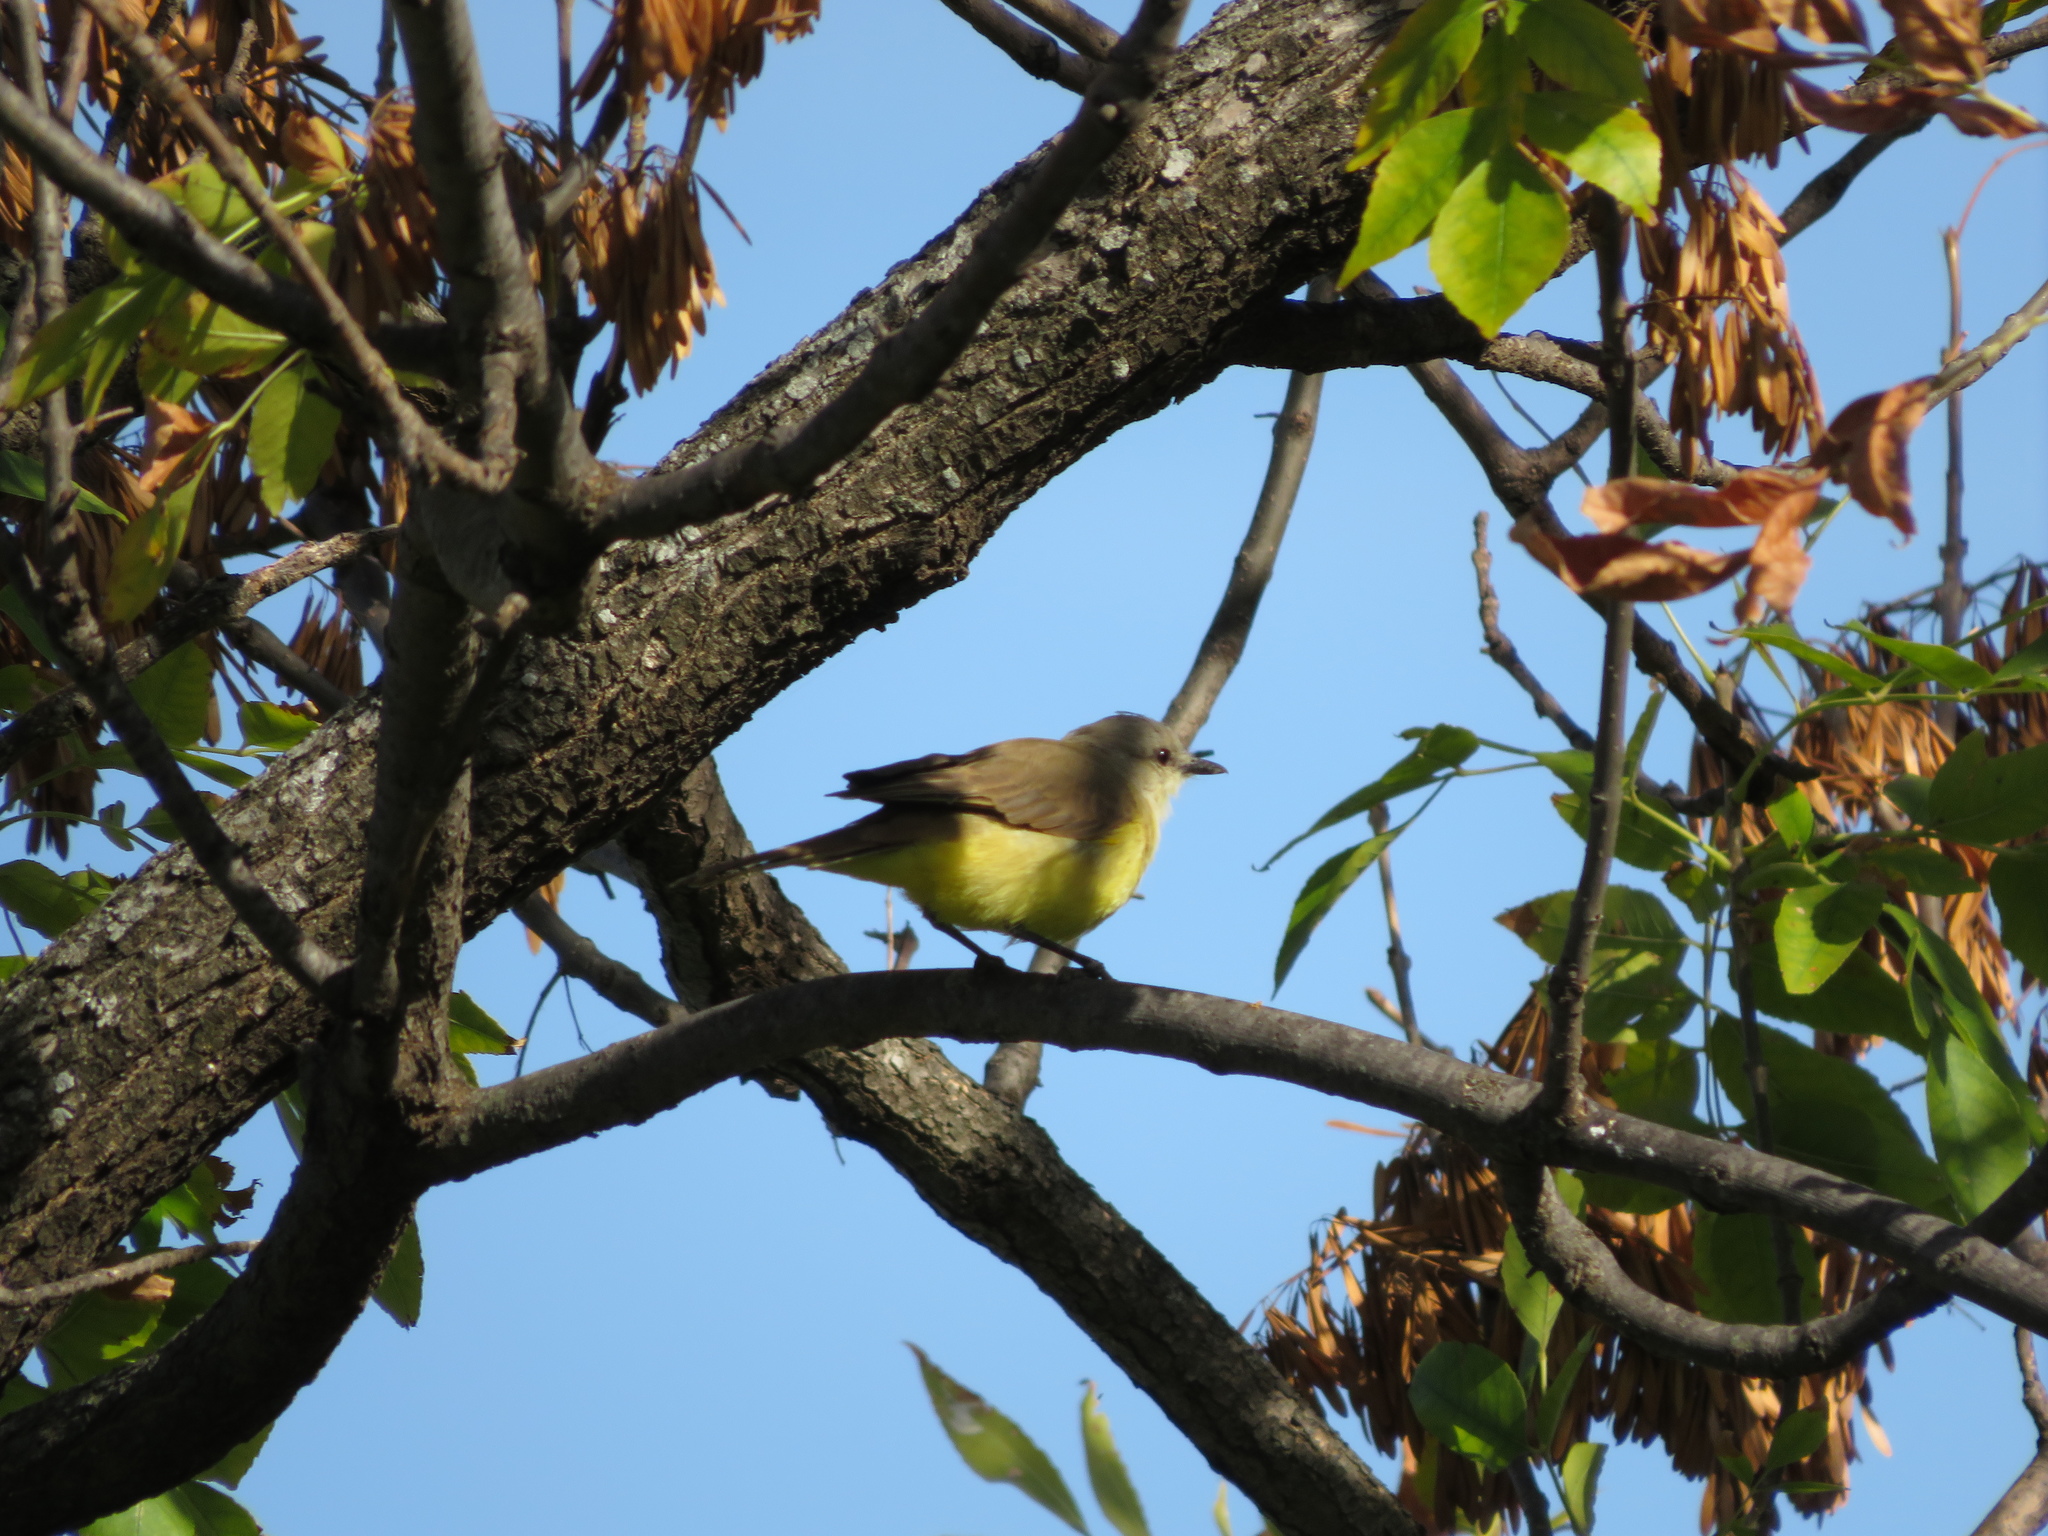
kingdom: Animalia
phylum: Chordata
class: Aves
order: Passeriformes
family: Tyrannidae
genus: Machetornis
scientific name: Machetornis rixosa
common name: Cattle tyrant
